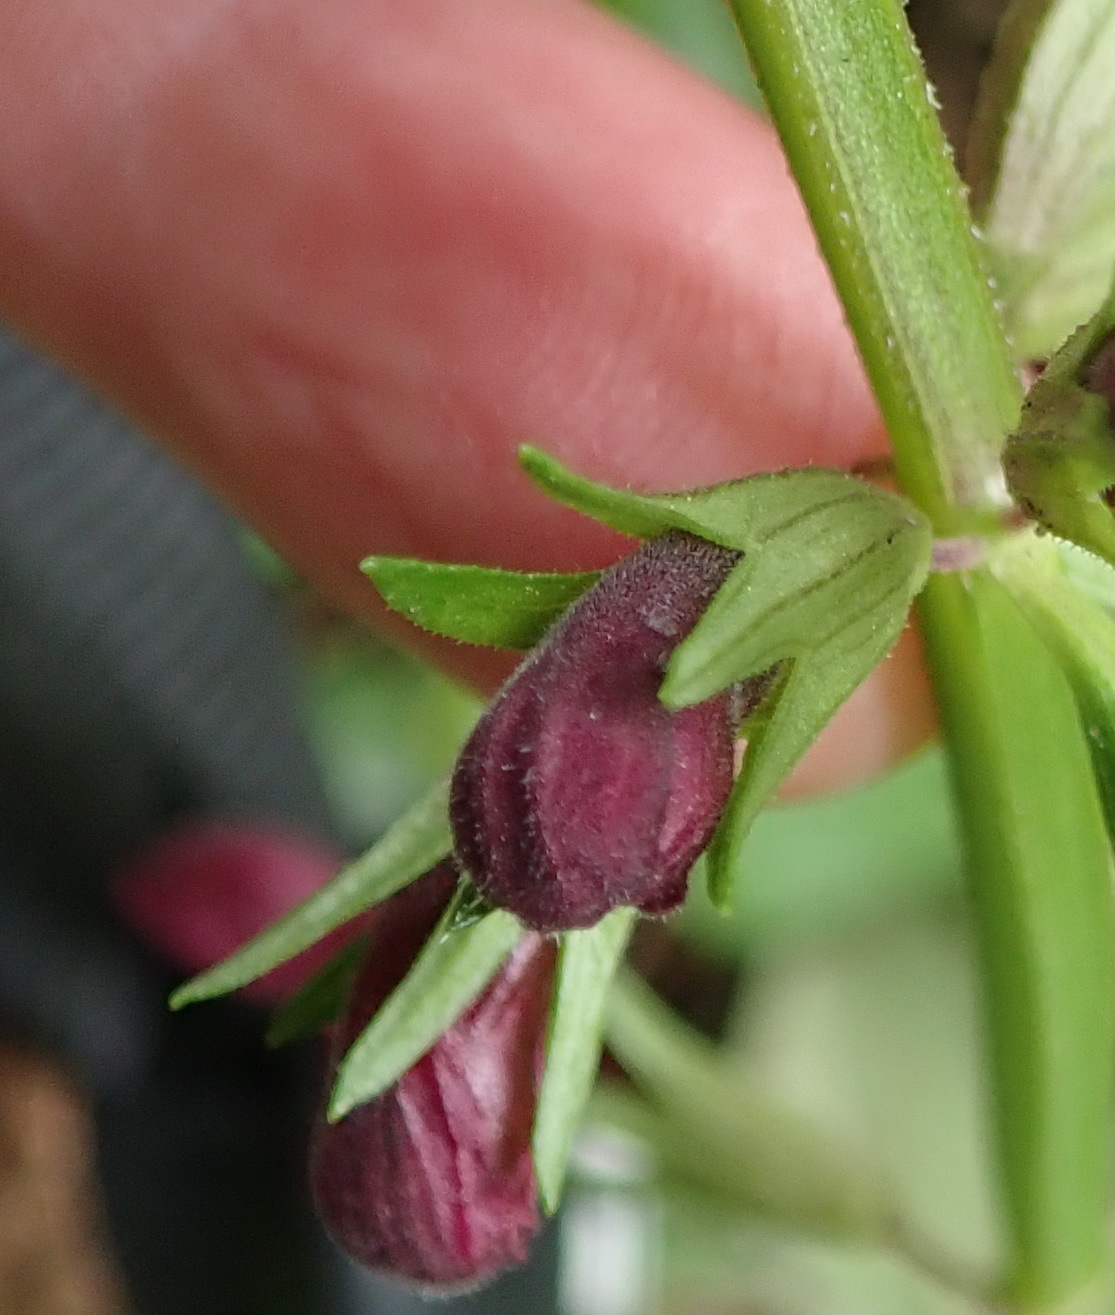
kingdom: Plantae
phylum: Tracheophyta
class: Magnoliopsida
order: Lamiales
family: Lamiaceae
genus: Stachys
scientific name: Stachys thunbergii
